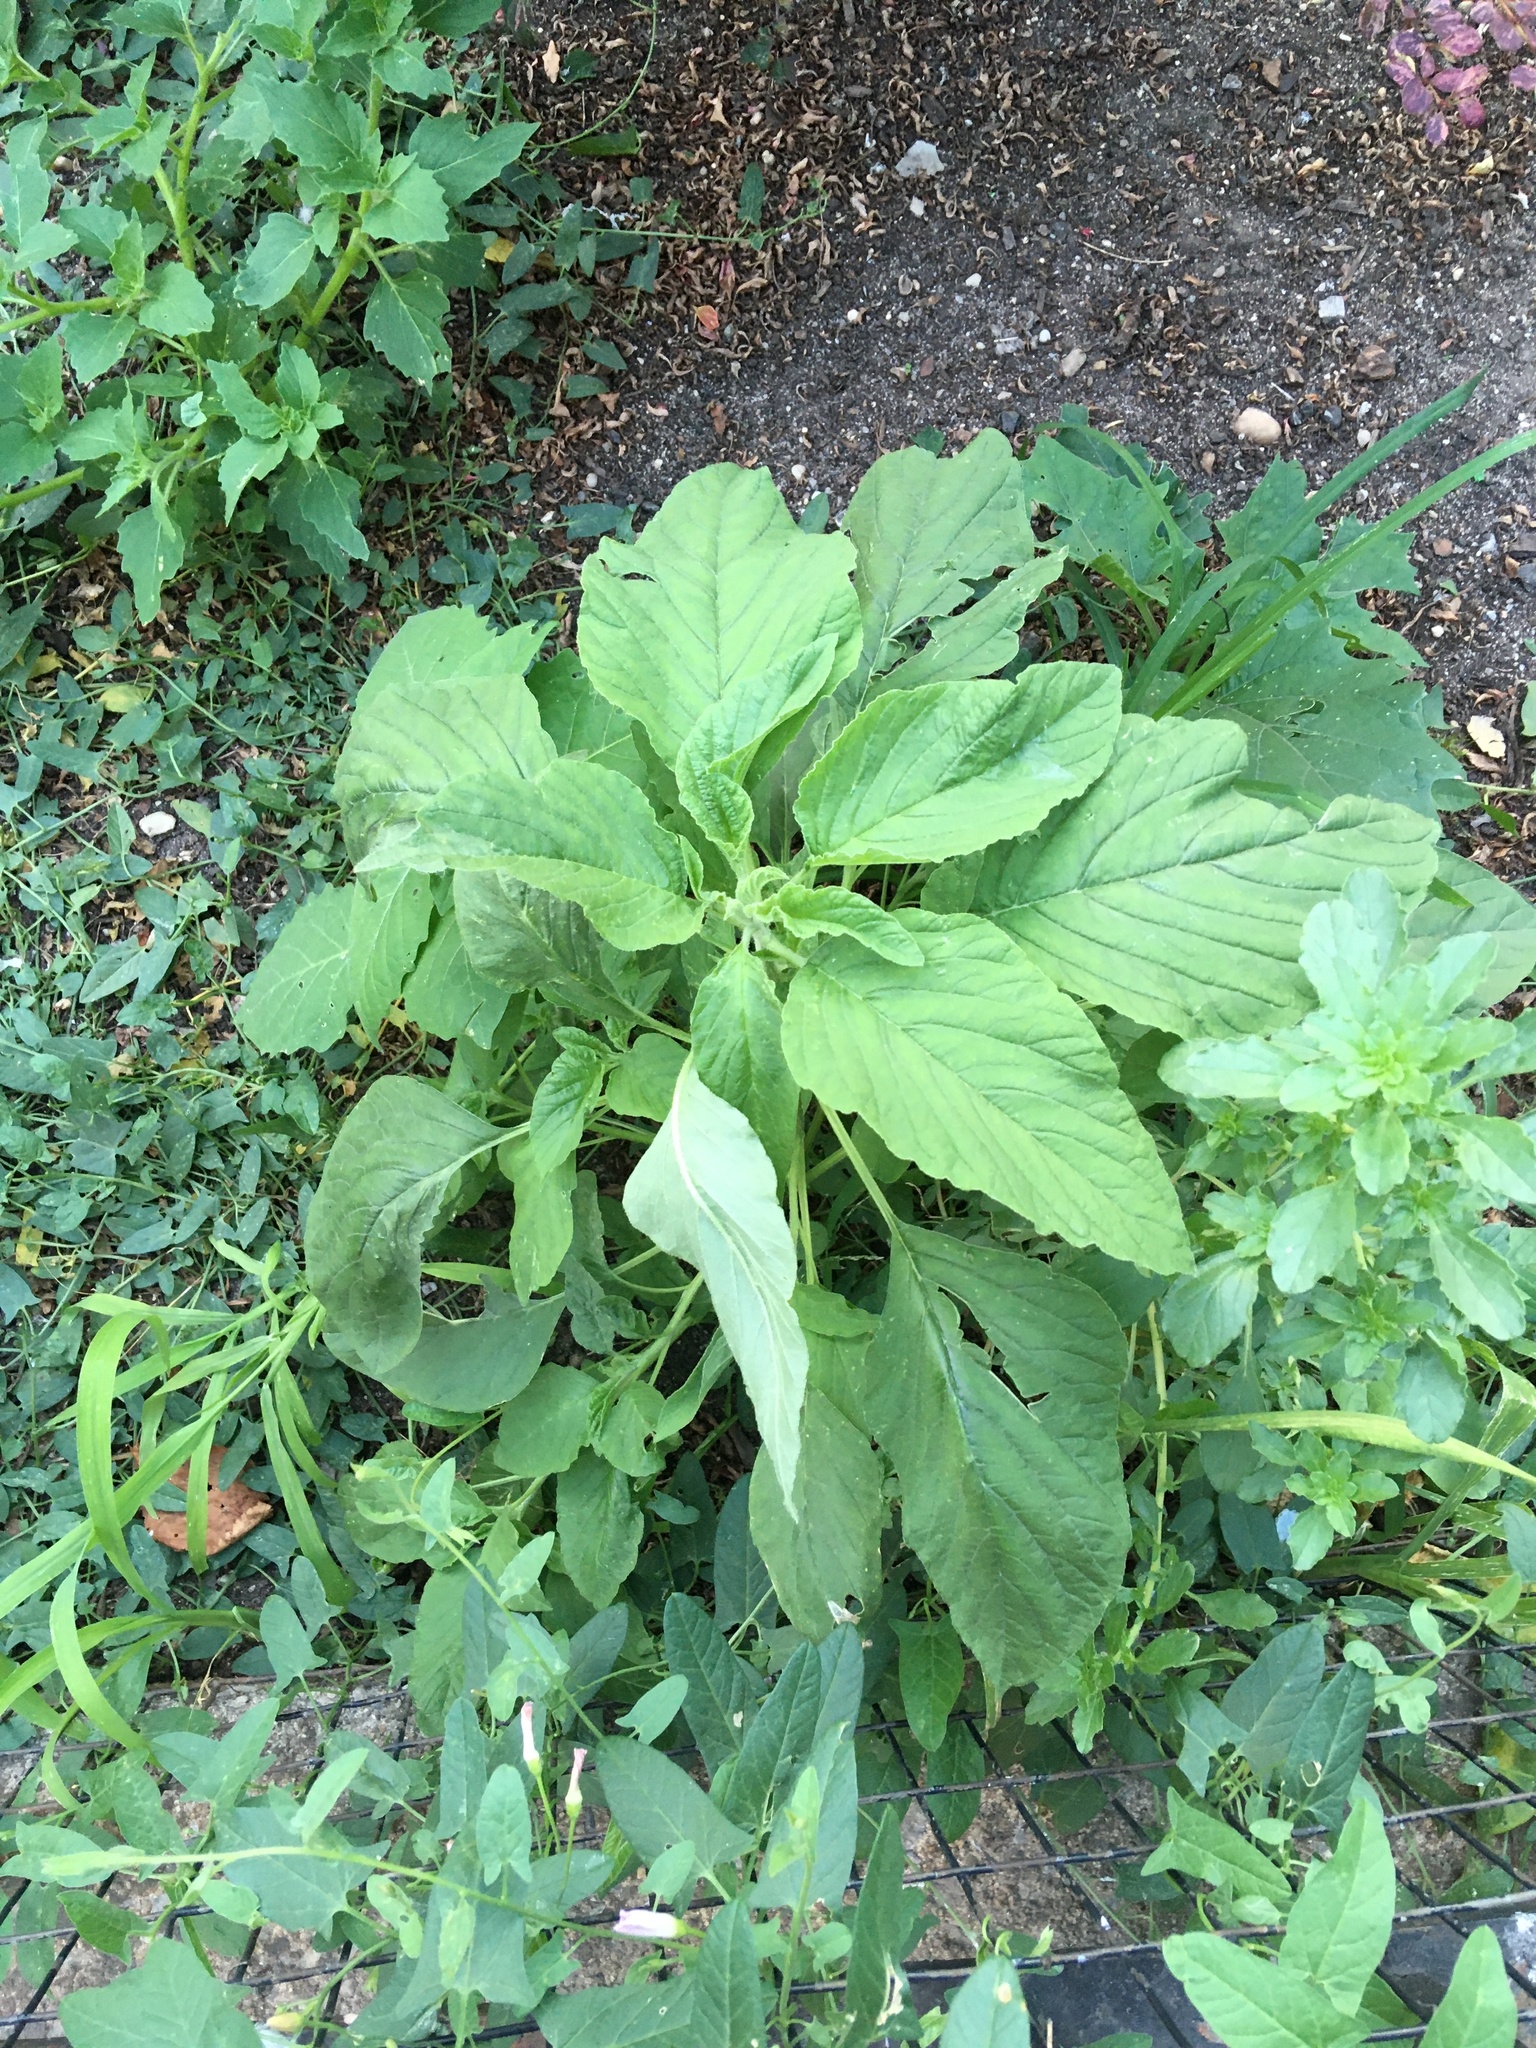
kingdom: Plantae
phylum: Tracheophyta
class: Magnoliopsida
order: Caryophyllales
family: Amaranthaceae
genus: Amaranthus
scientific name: Amaranthus retroflexus
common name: Redroot amaranth
